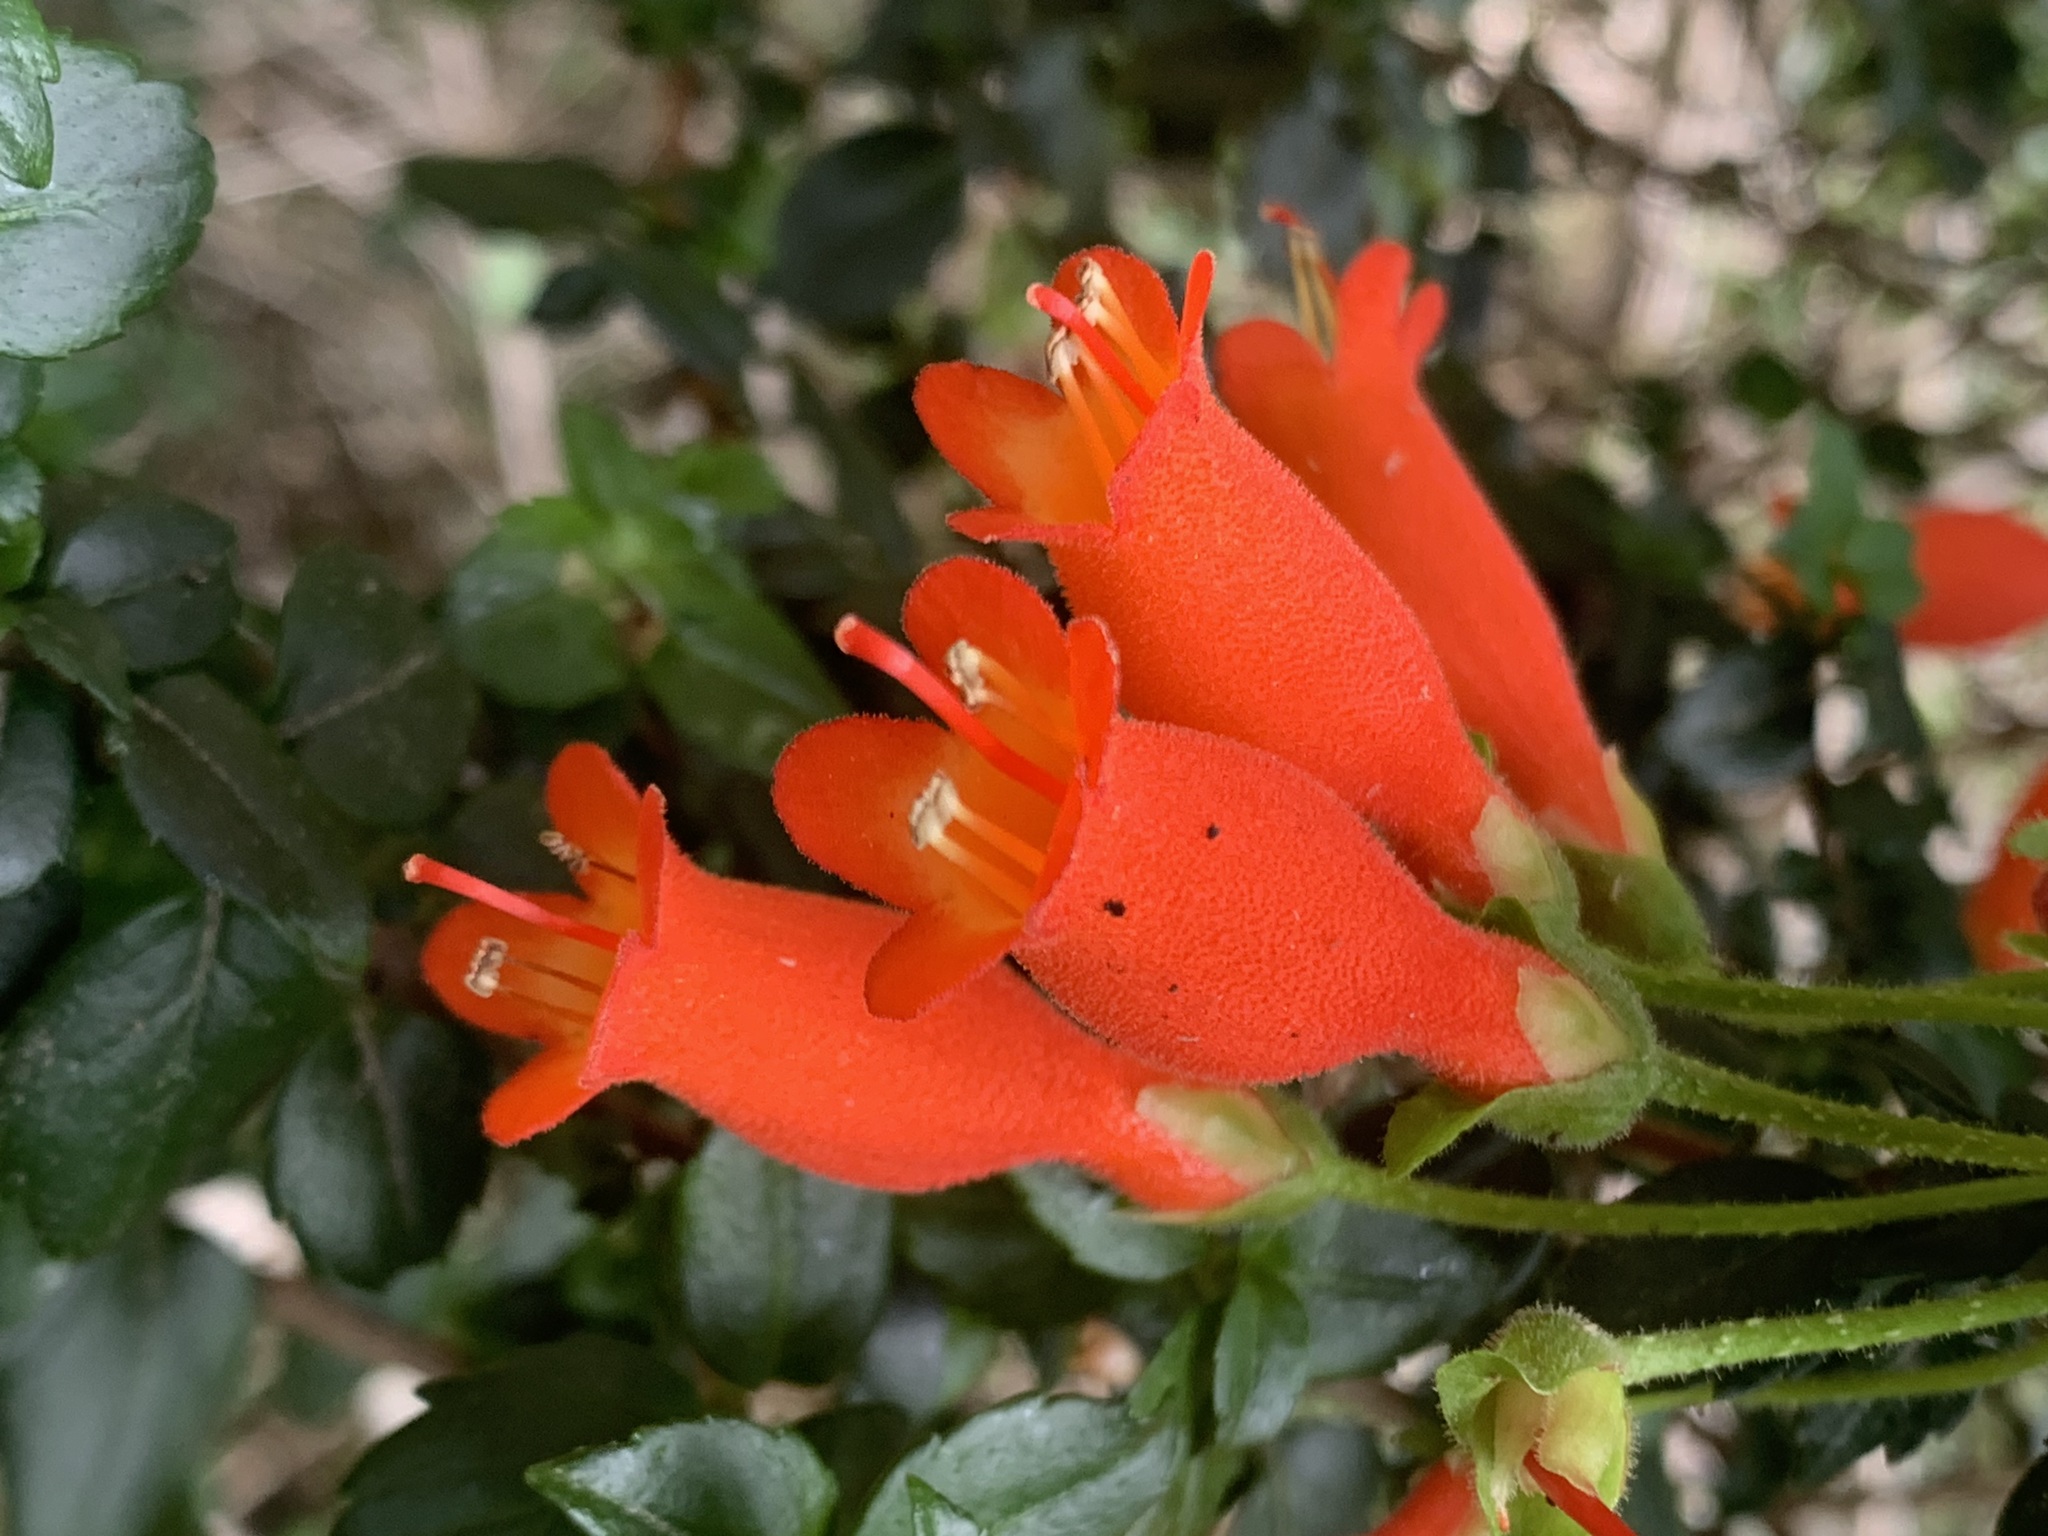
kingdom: Plantae
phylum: Tracheophyta
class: Magnoliopsida
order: Lamiales
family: Gesneriaceae
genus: Mitraria
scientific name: Mitraria coccinea
